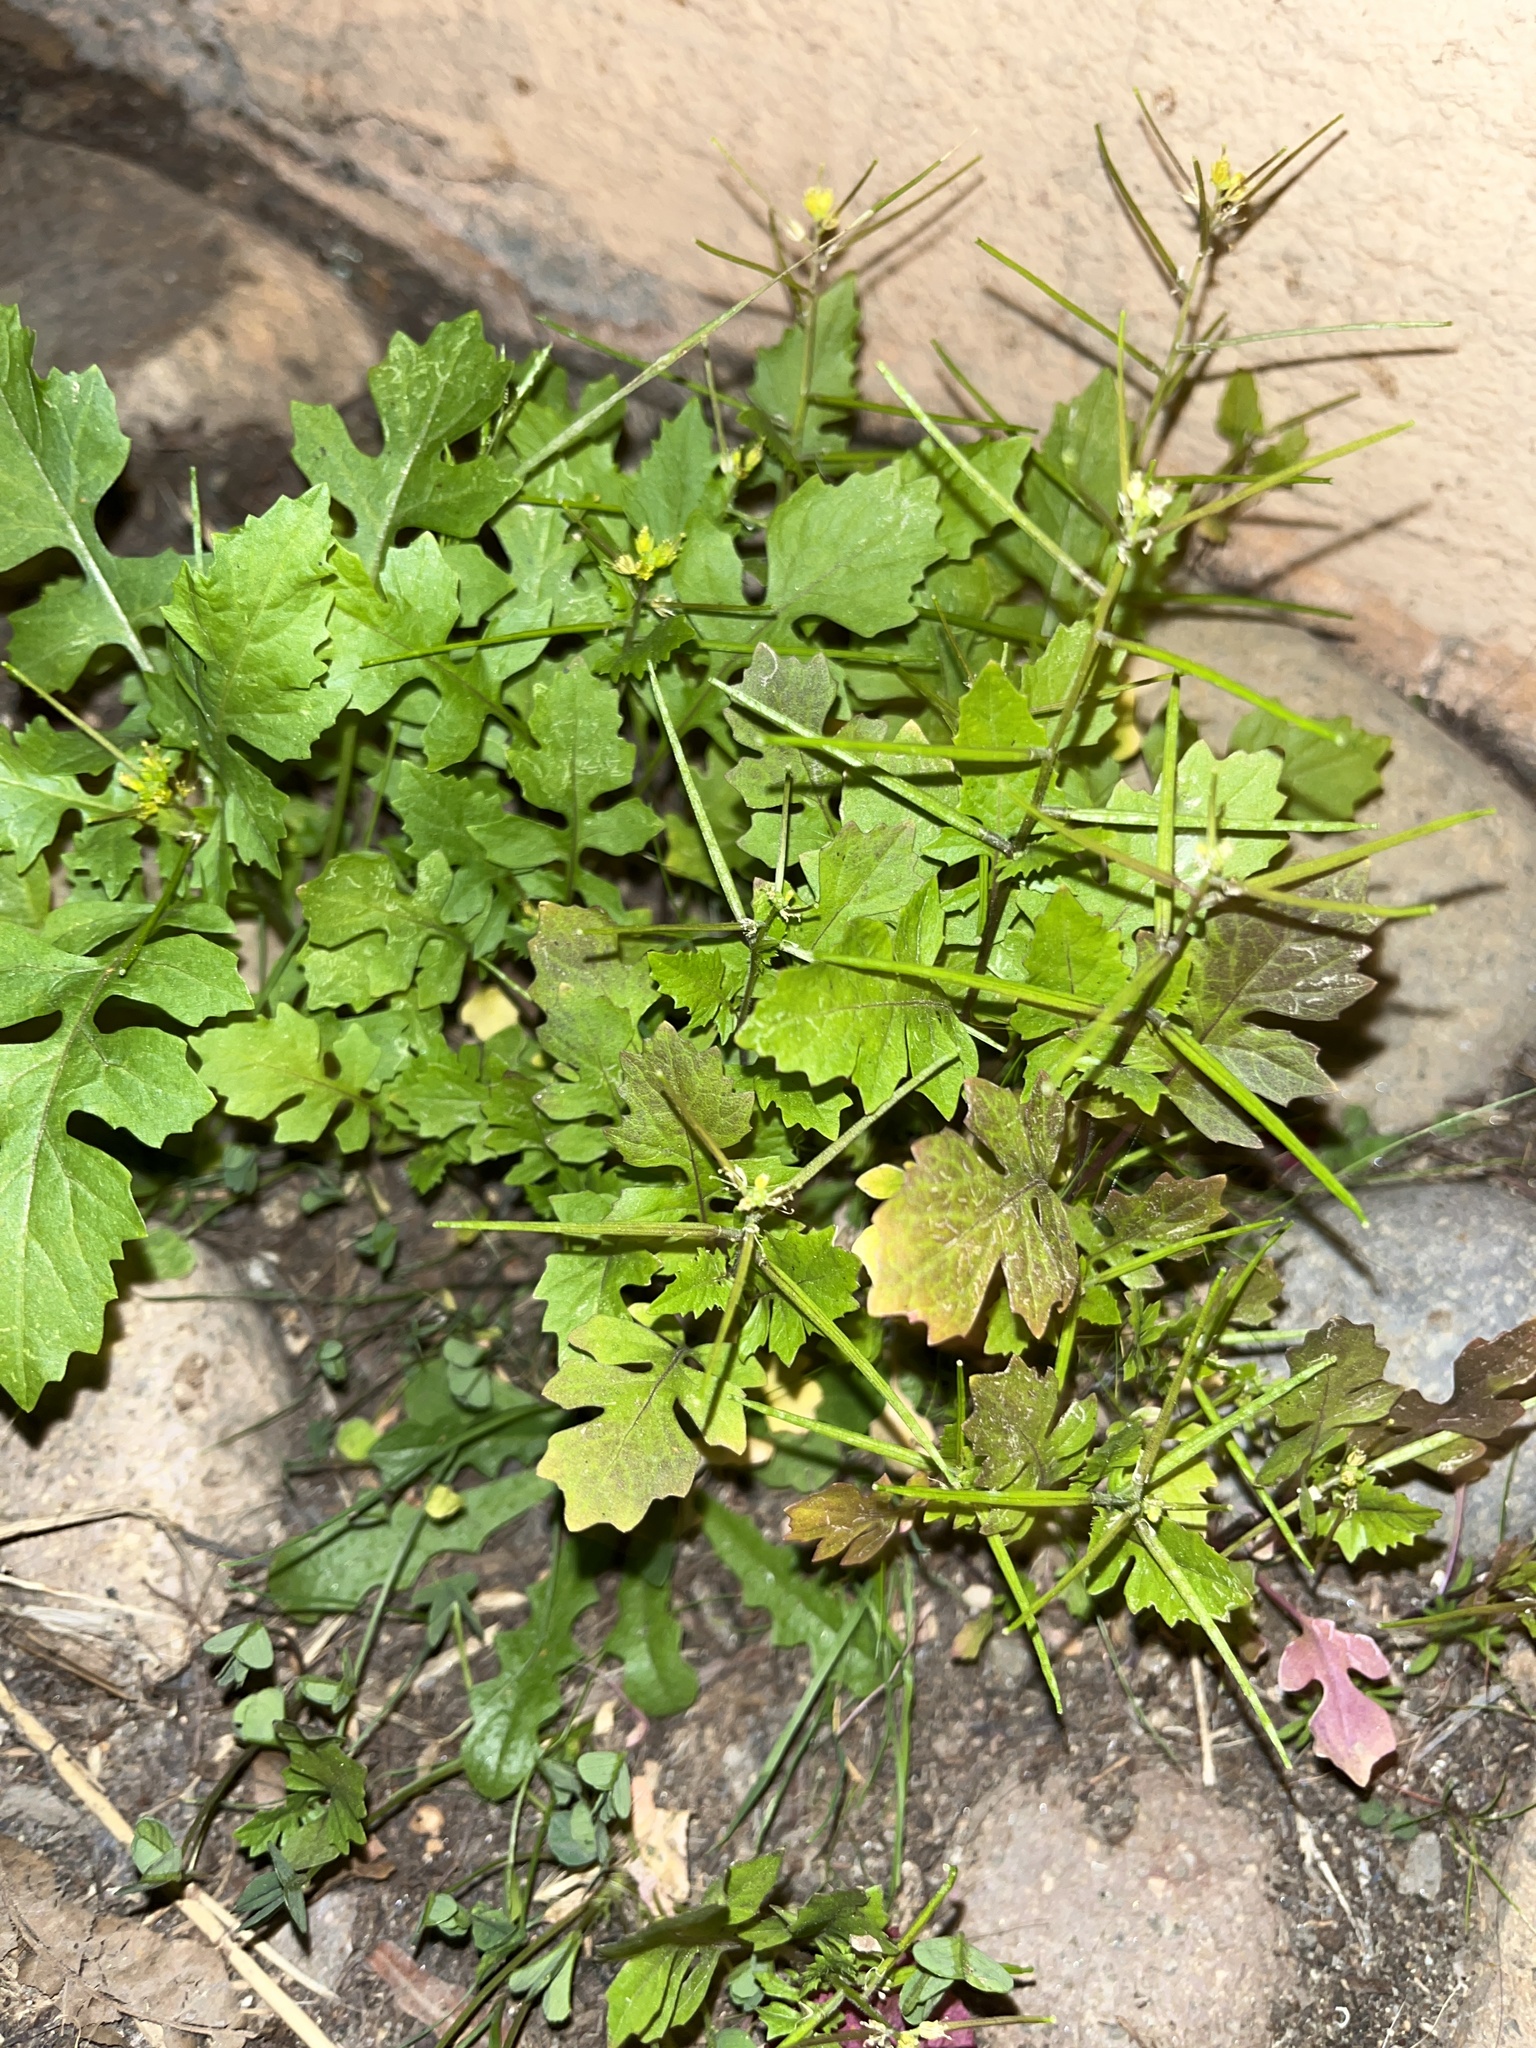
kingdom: Plantae
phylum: Tracheophyta
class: Magnoliopsida
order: Brassicales
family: Brassicaceae
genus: Sisymbrium
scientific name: Sisymbrium erysimoides
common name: French rocket
